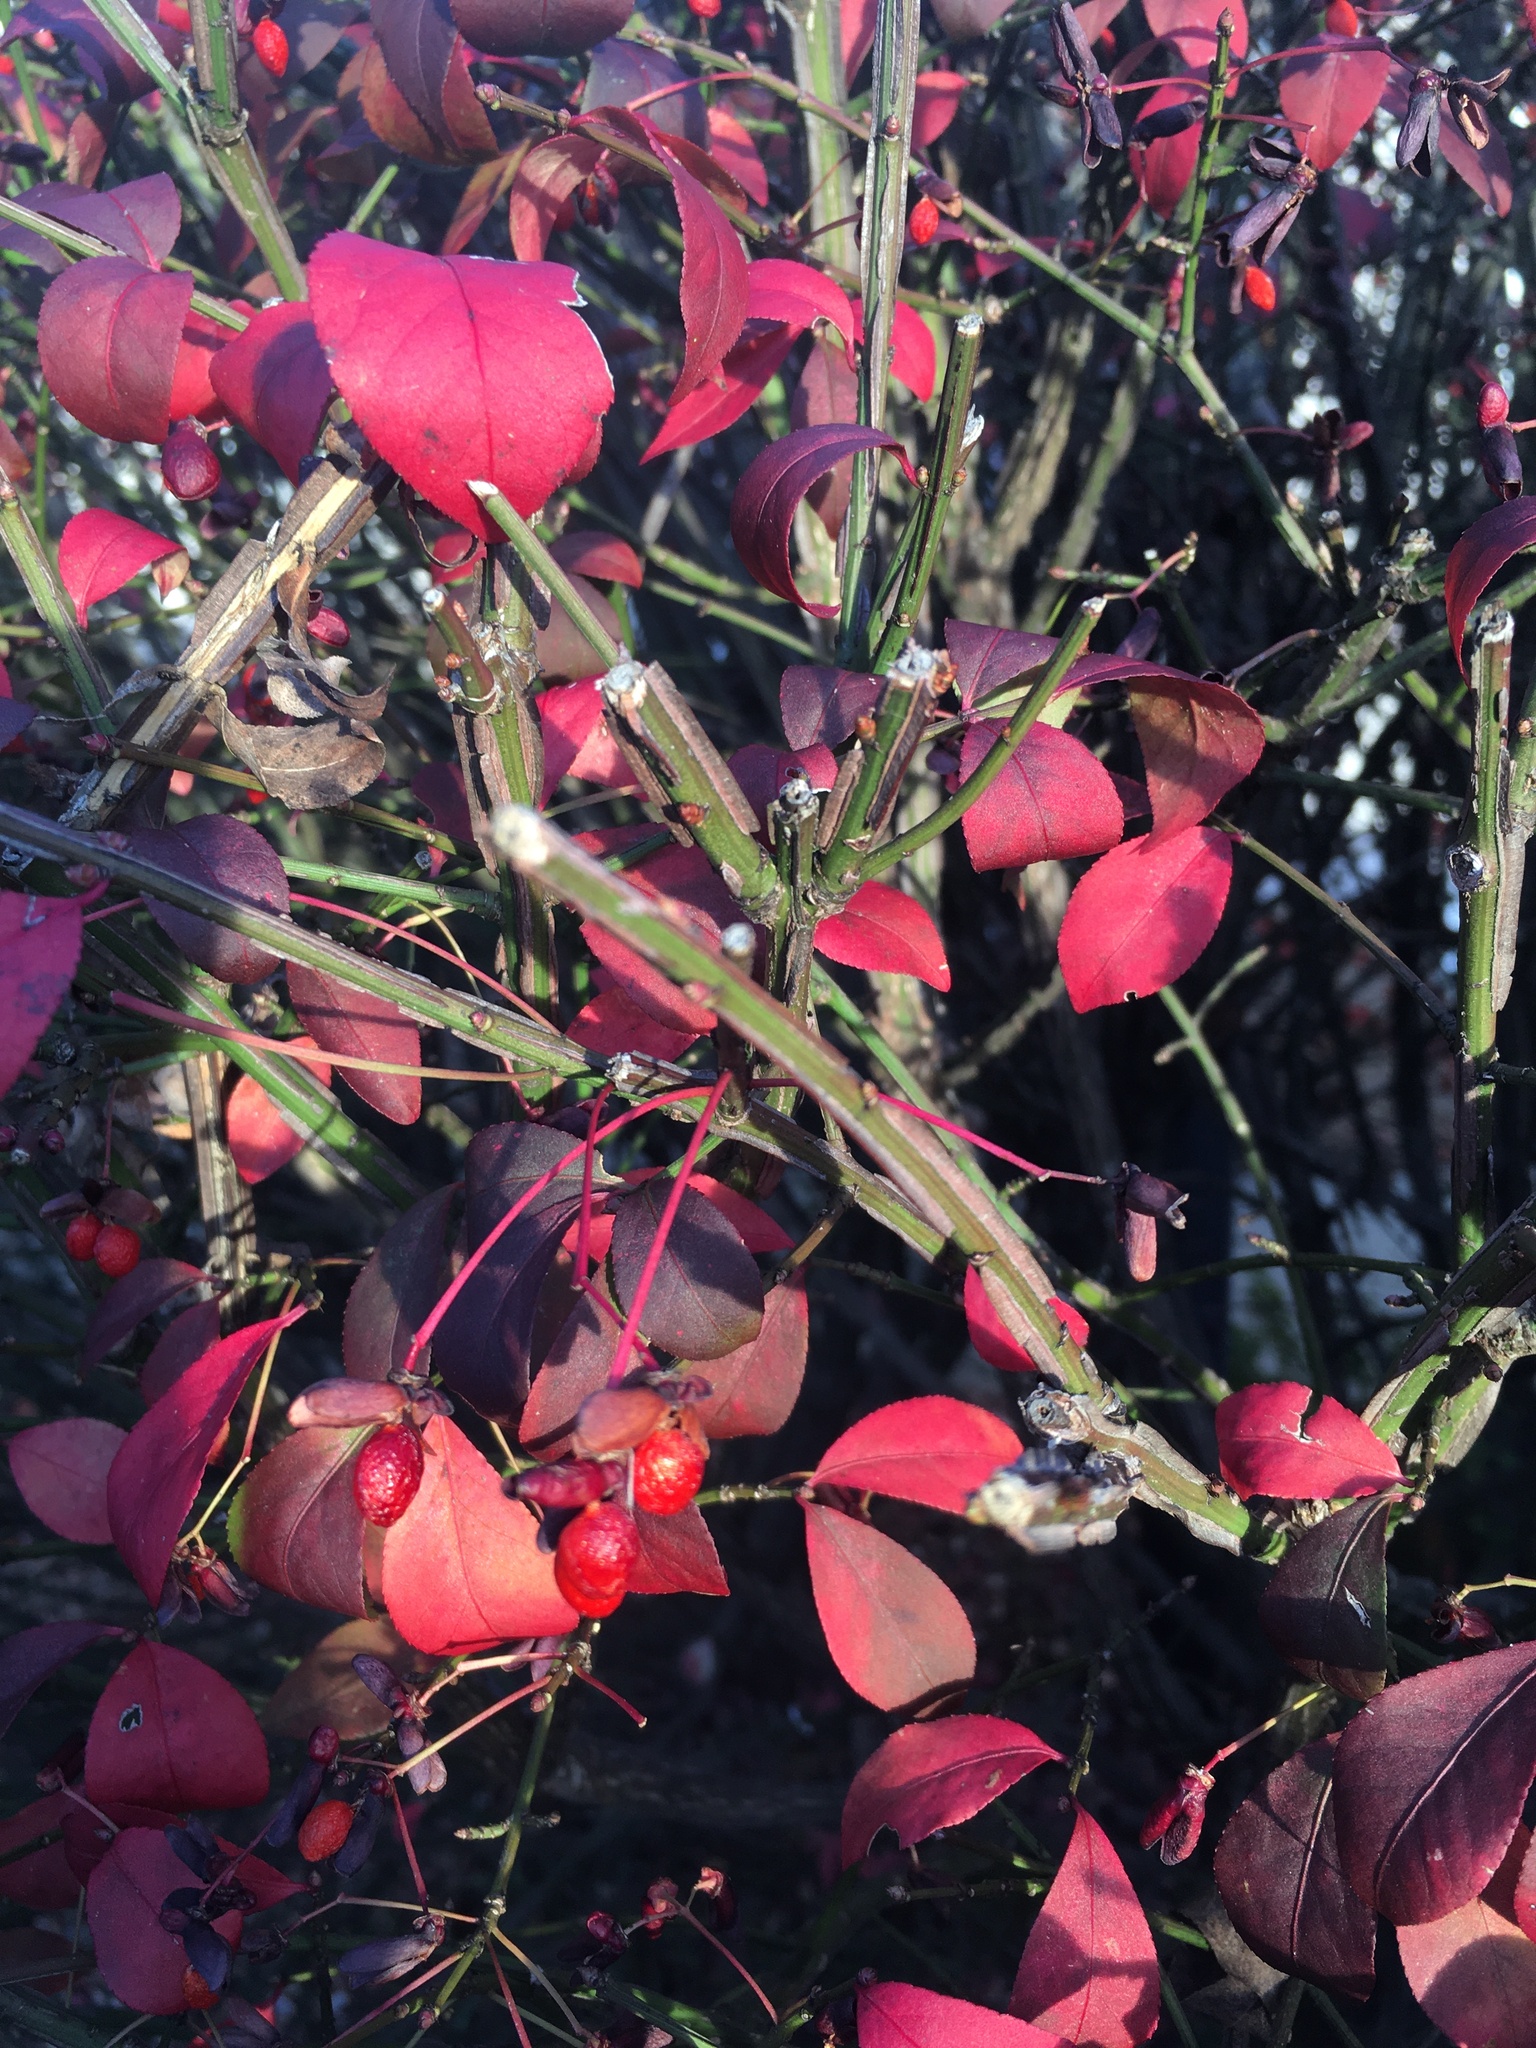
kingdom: Plantae
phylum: Tracheophyta
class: Magnoliopsida
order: Celastrales
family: Celastraceae
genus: Euonymus
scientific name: Euonymus alatus
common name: Winged euonymus
